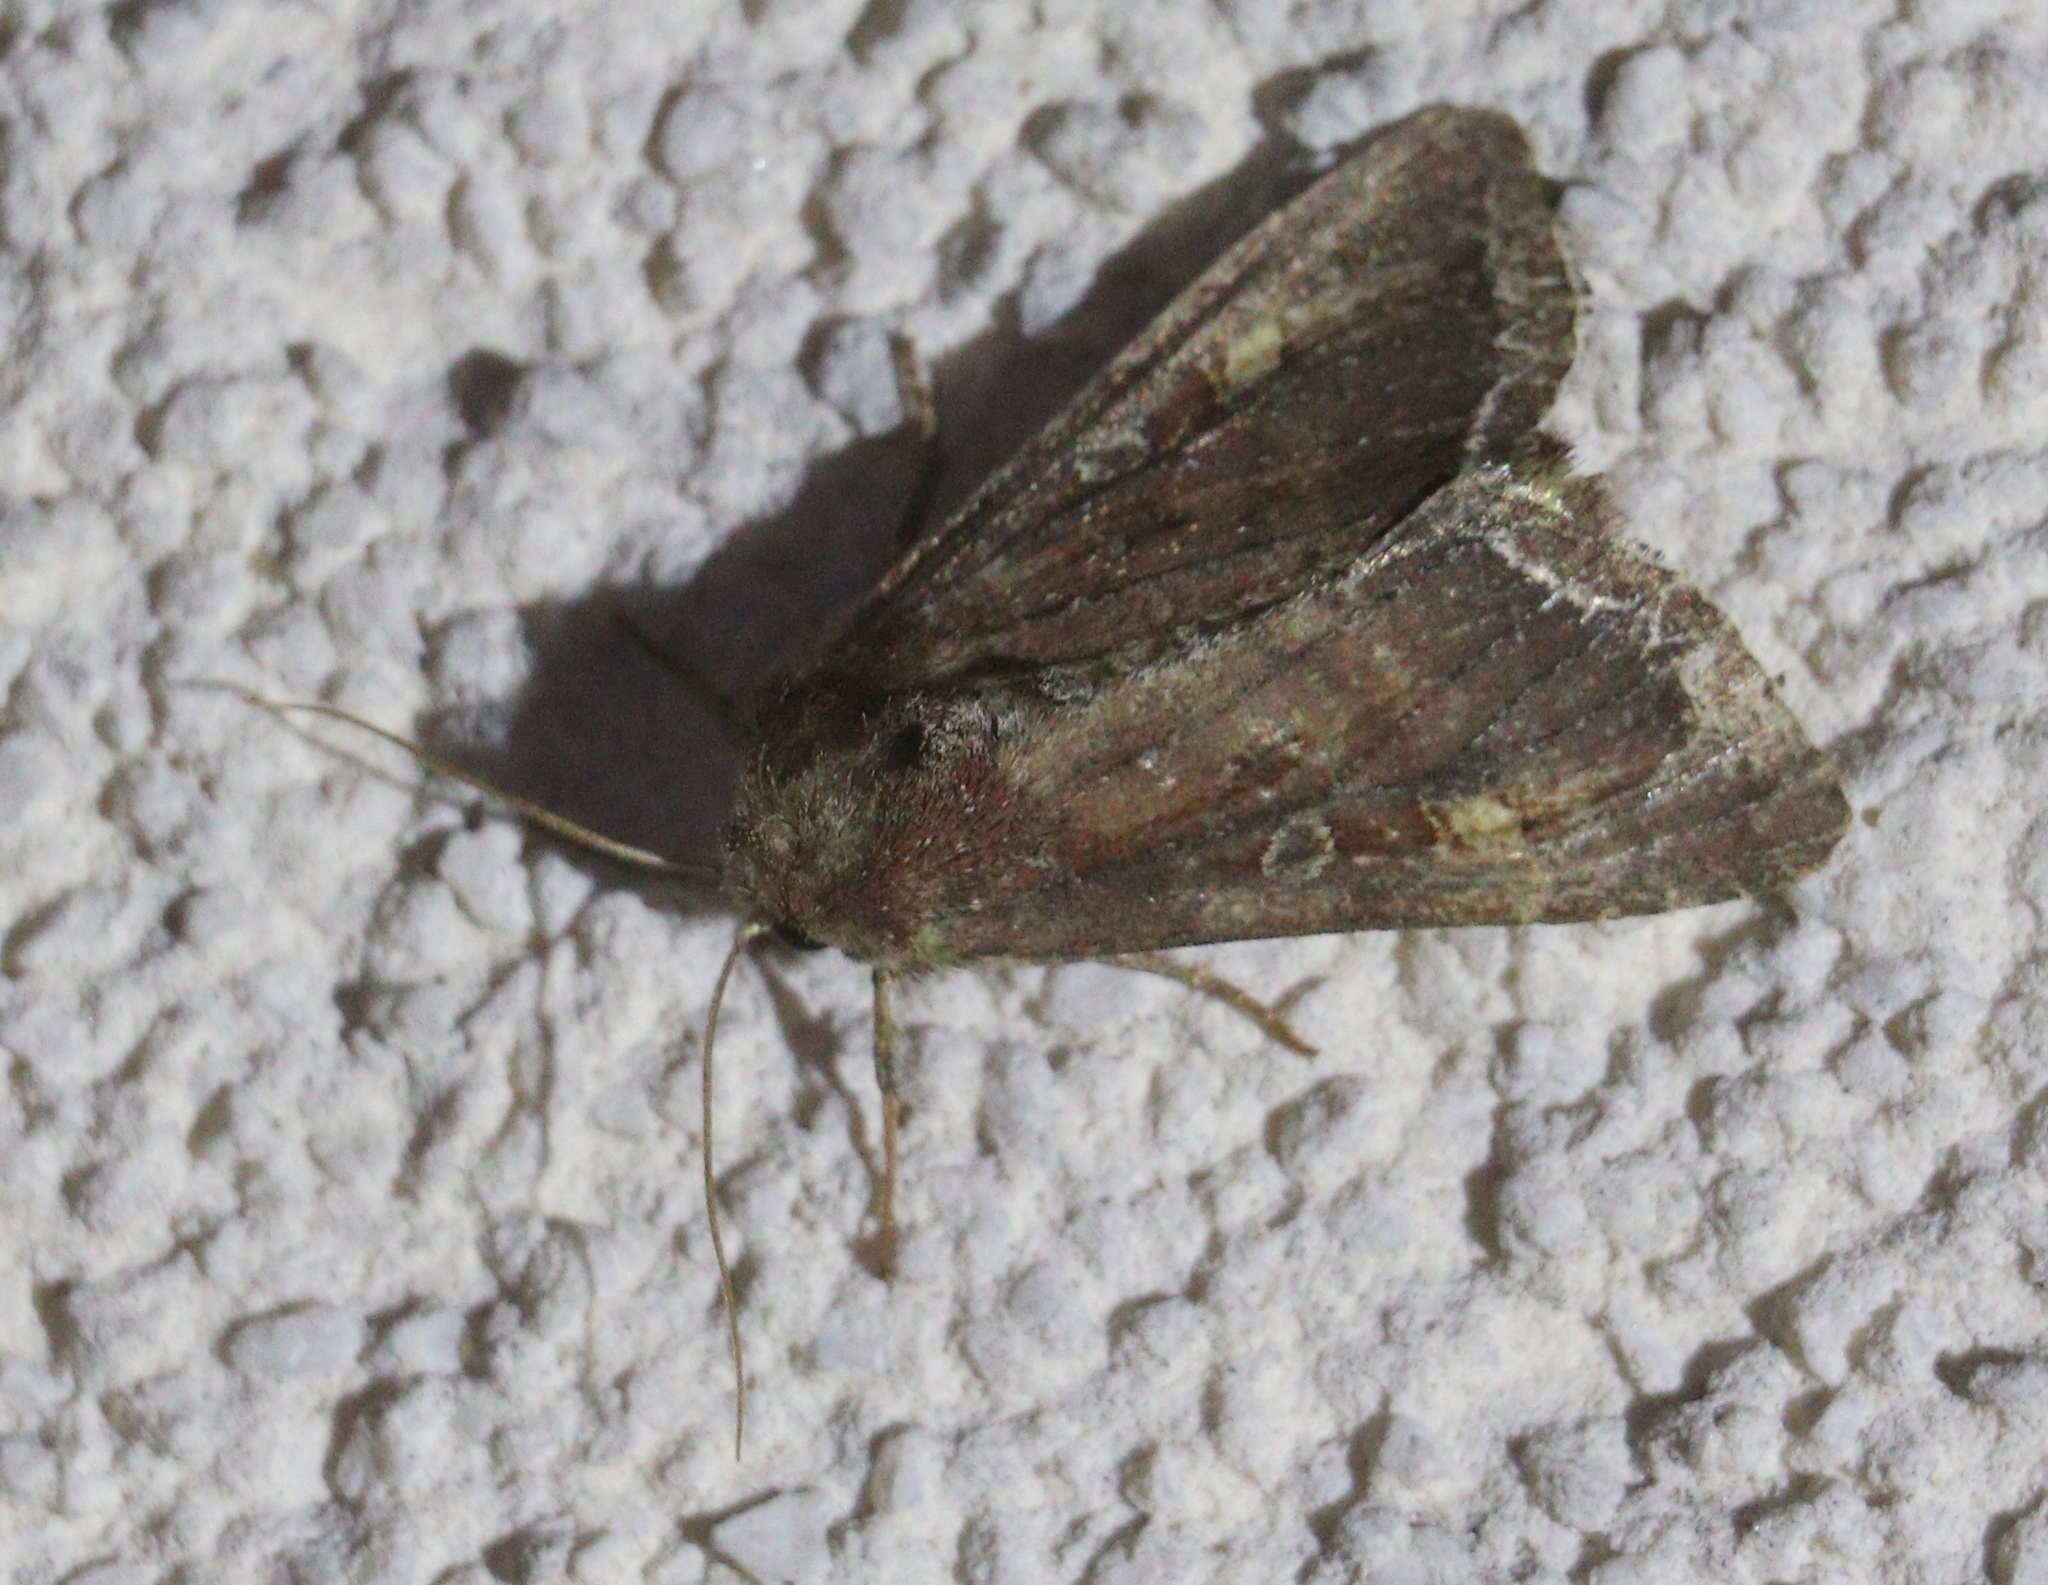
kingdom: Animalia
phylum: Arthropoda
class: Insecta
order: Lepidoptera
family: Noctuidae
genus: Lacanobia
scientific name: Lacanobia oleracea
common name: Bright-line brown-eye
